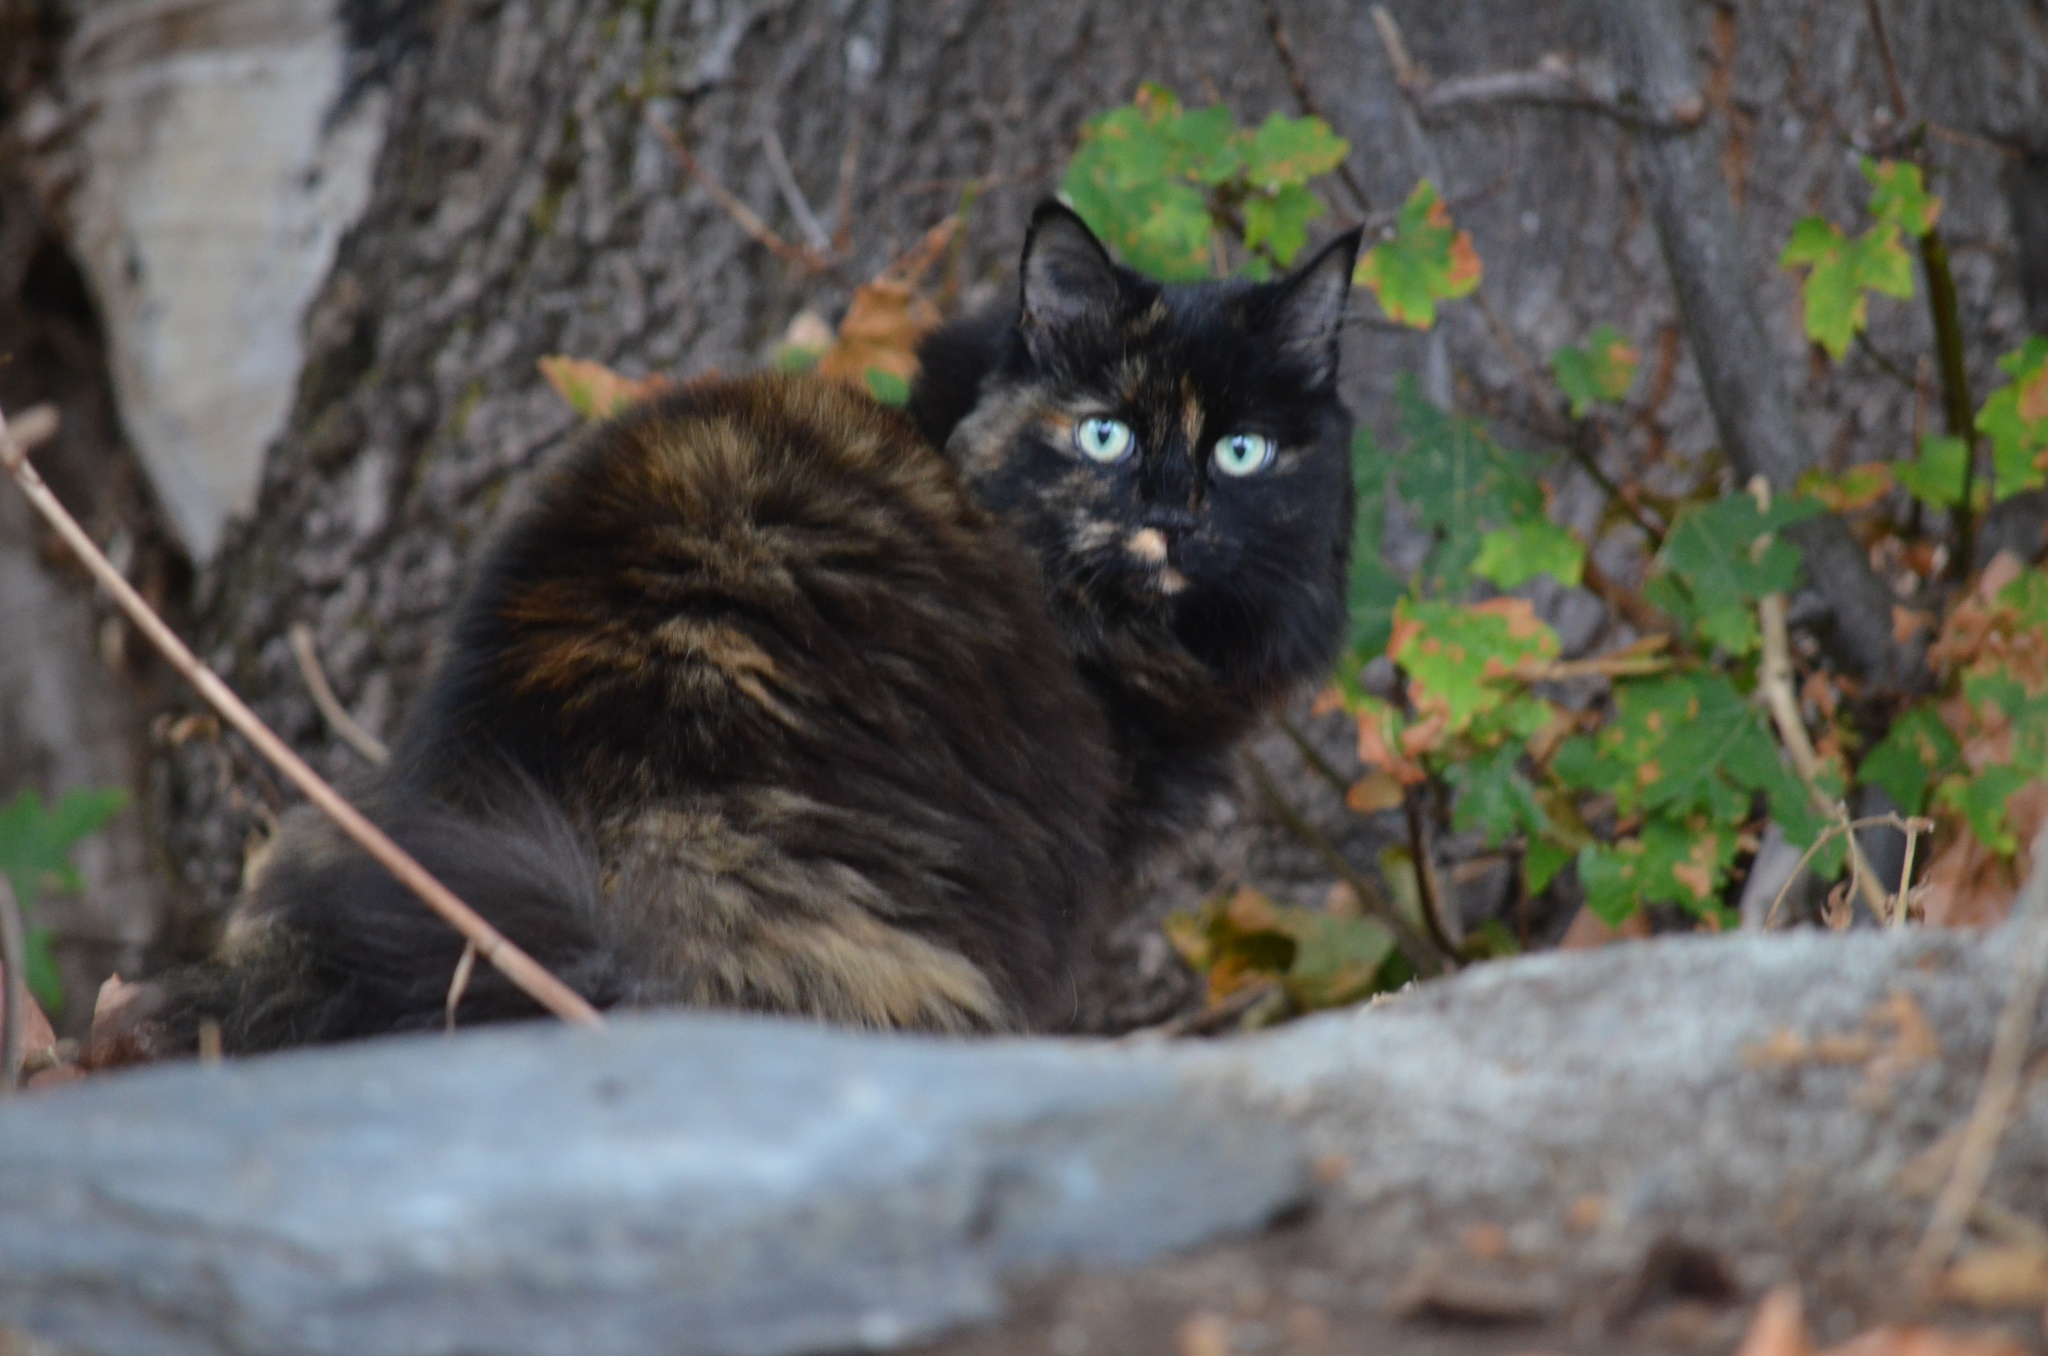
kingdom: Animalia
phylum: Chordata
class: Mammalia
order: Carnivora
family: Felidae
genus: Felis
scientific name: Felis catus
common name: Domestic cat
